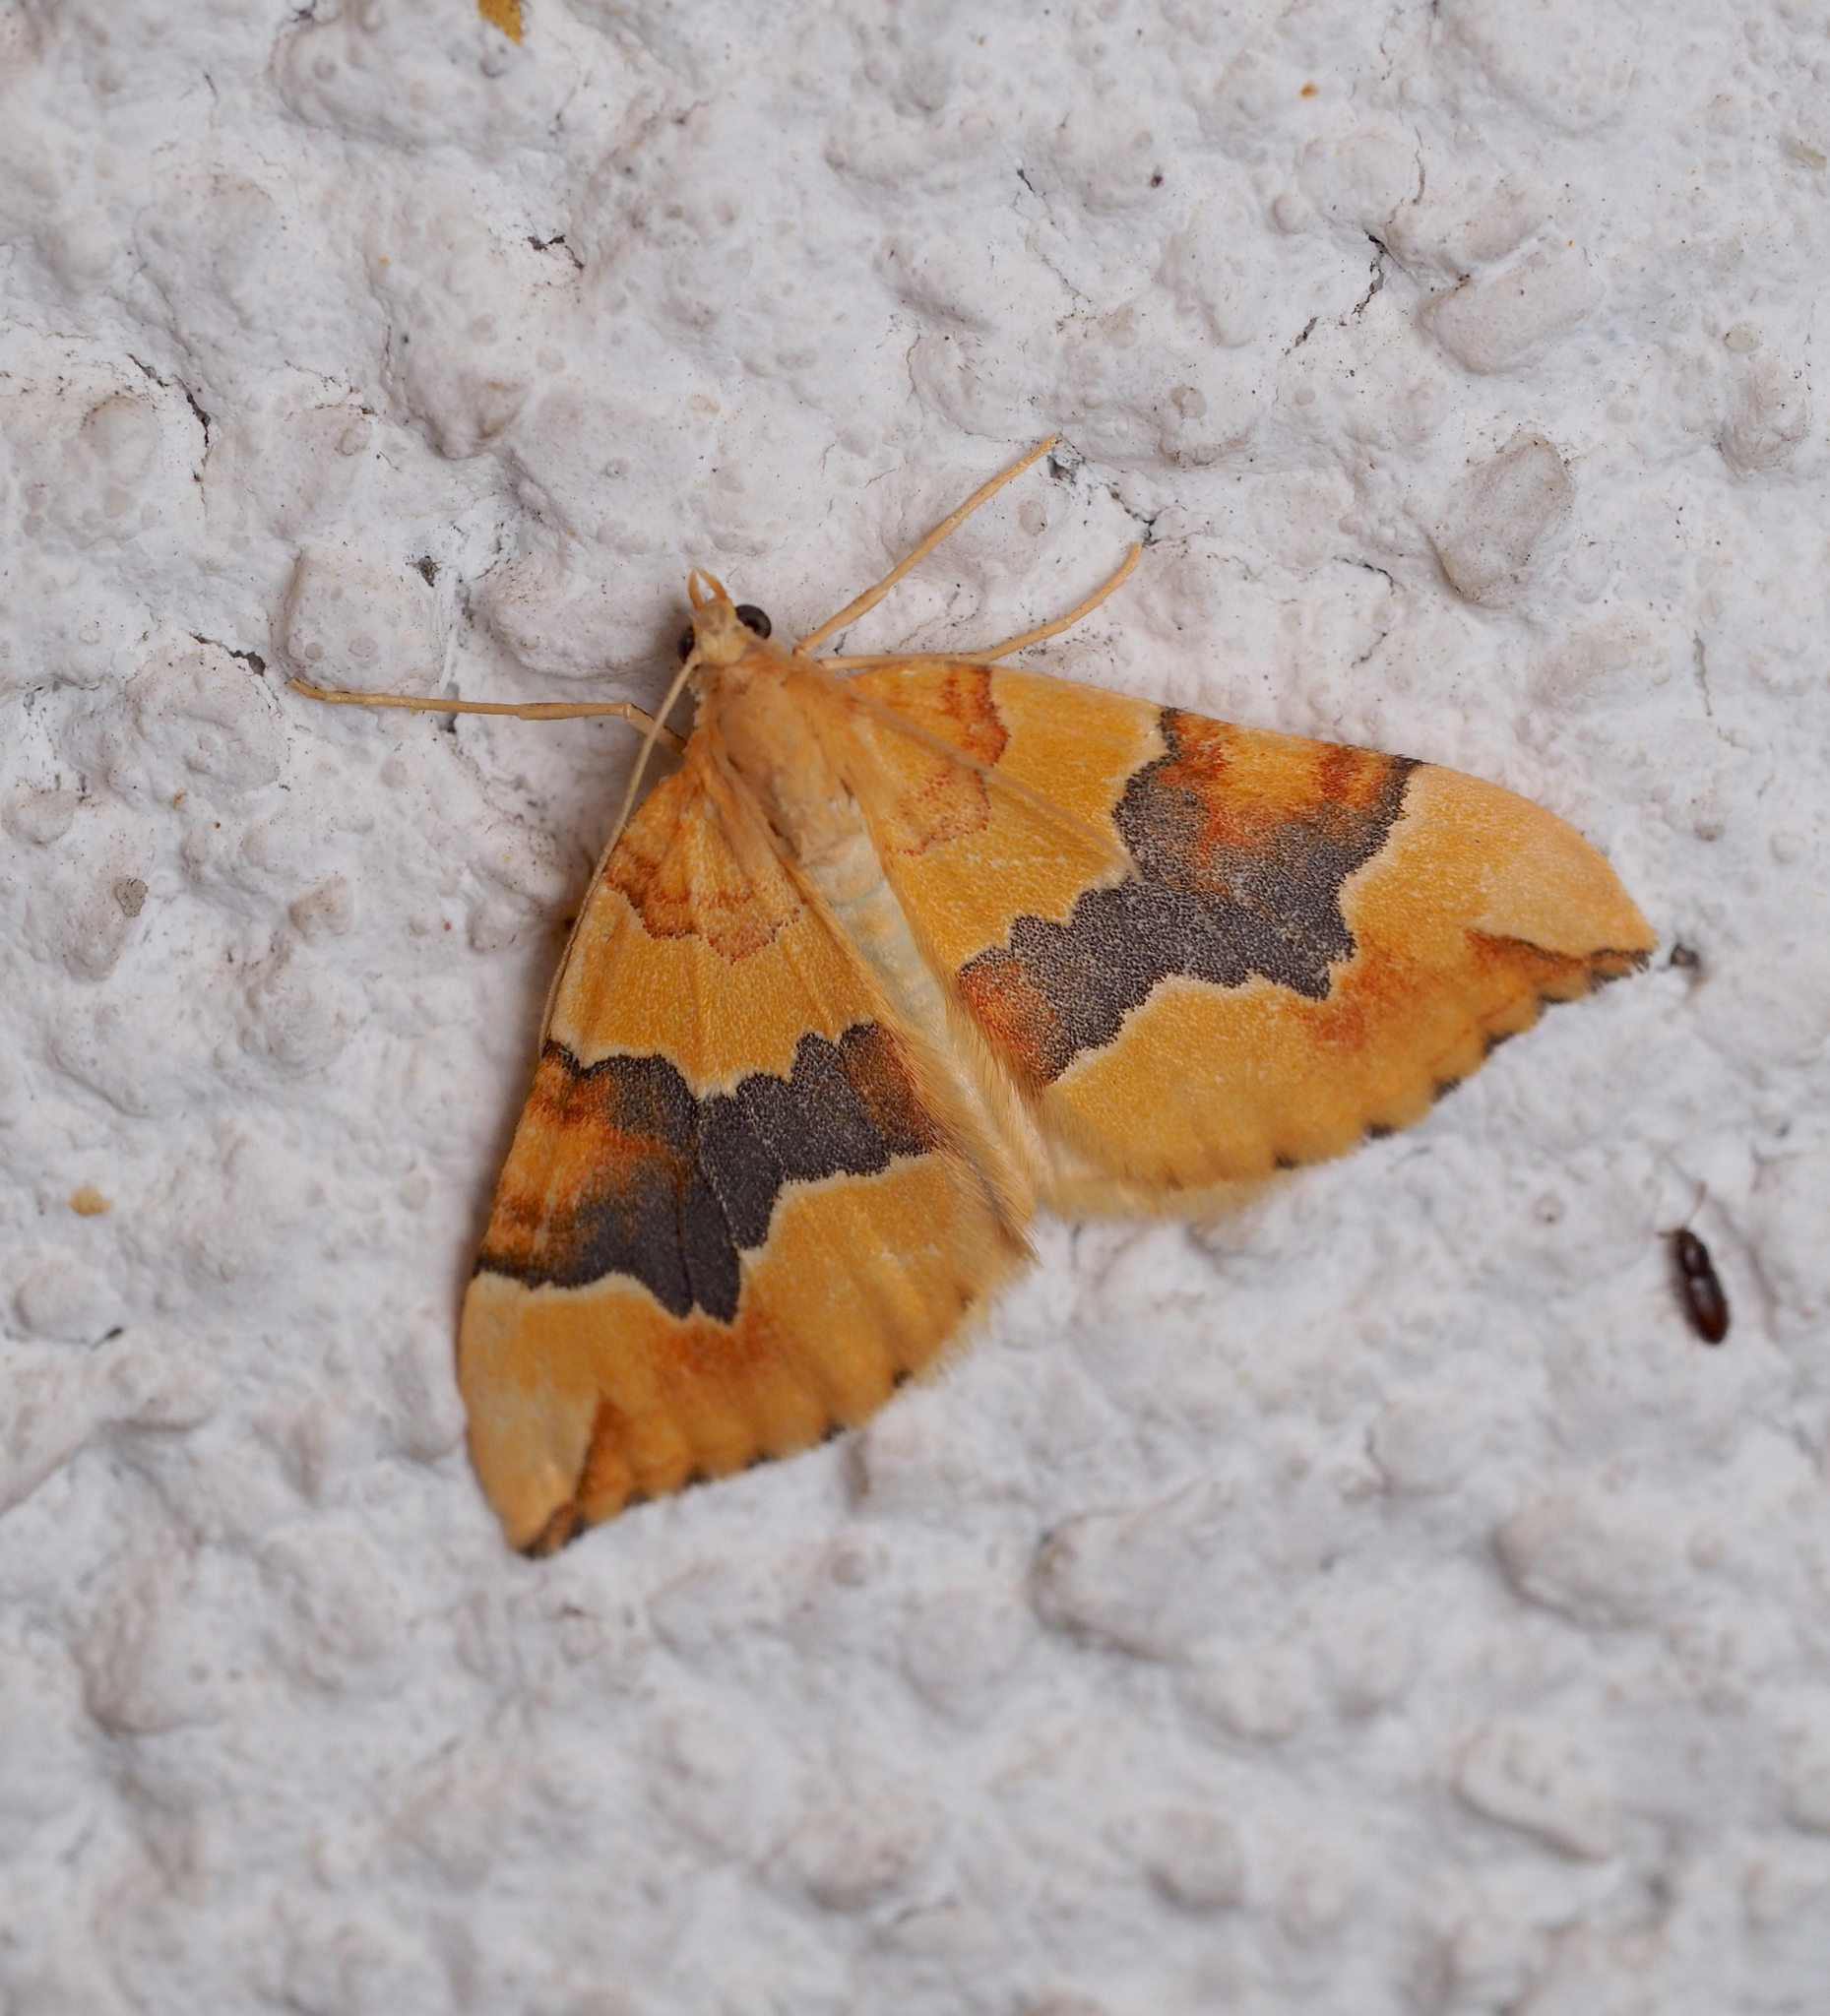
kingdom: Animalia
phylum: Arthropoda
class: Insecta
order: Lepidoptera
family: Geometridae
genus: Cidaria
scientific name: Cidaria fulvata
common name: Barred yellow
